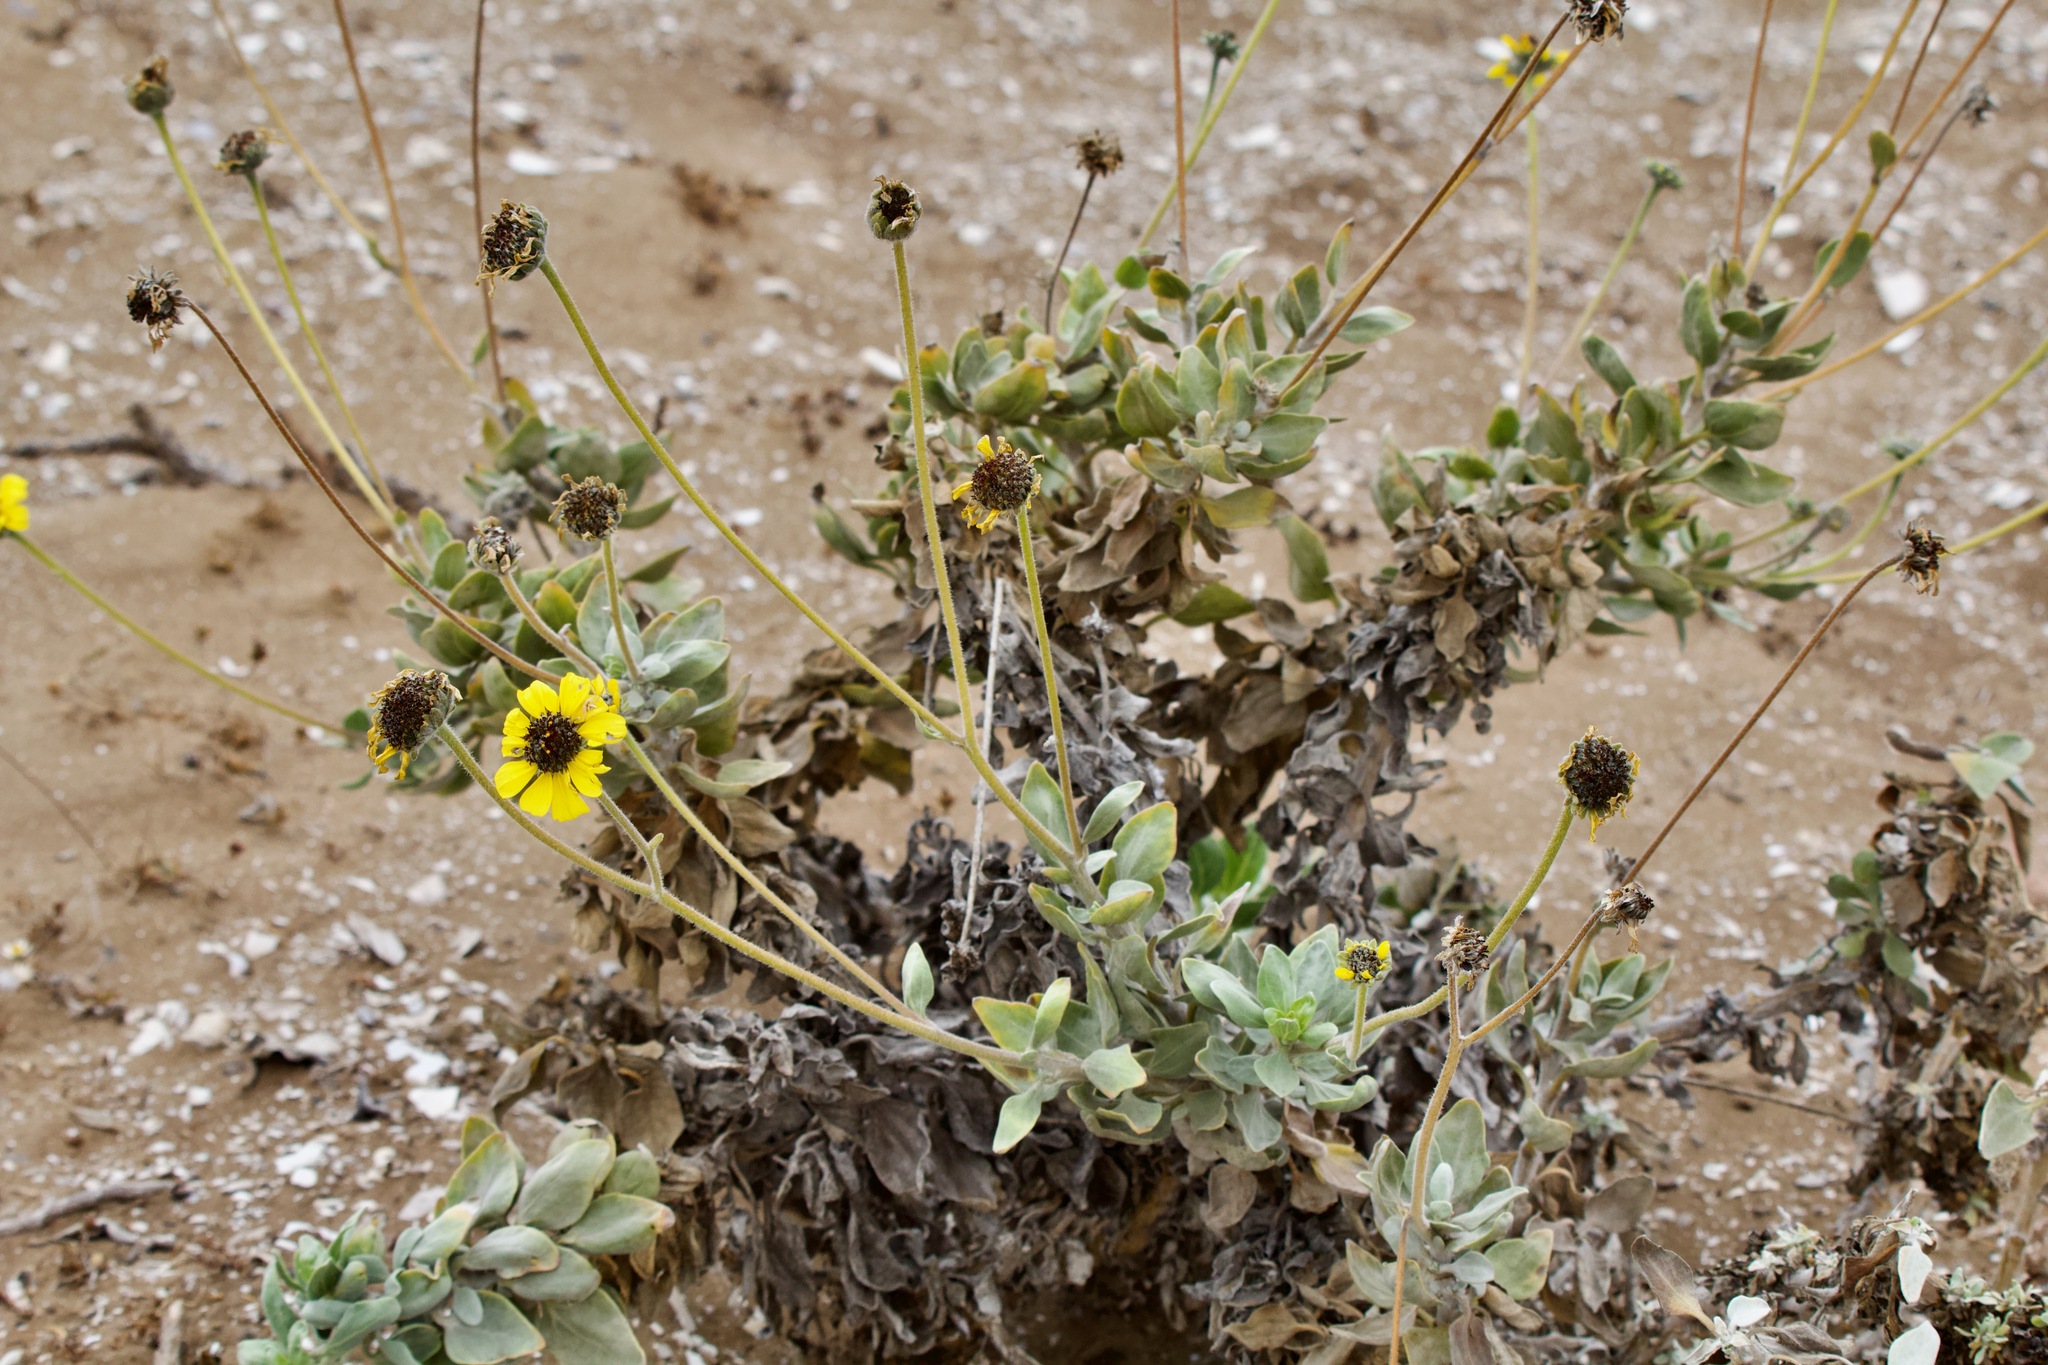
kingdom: Plantae
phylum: Tracheophyta
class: Magnoliopsida
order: Asterales
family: Asteraceae
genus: Encelia
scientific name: Encelia canescens
